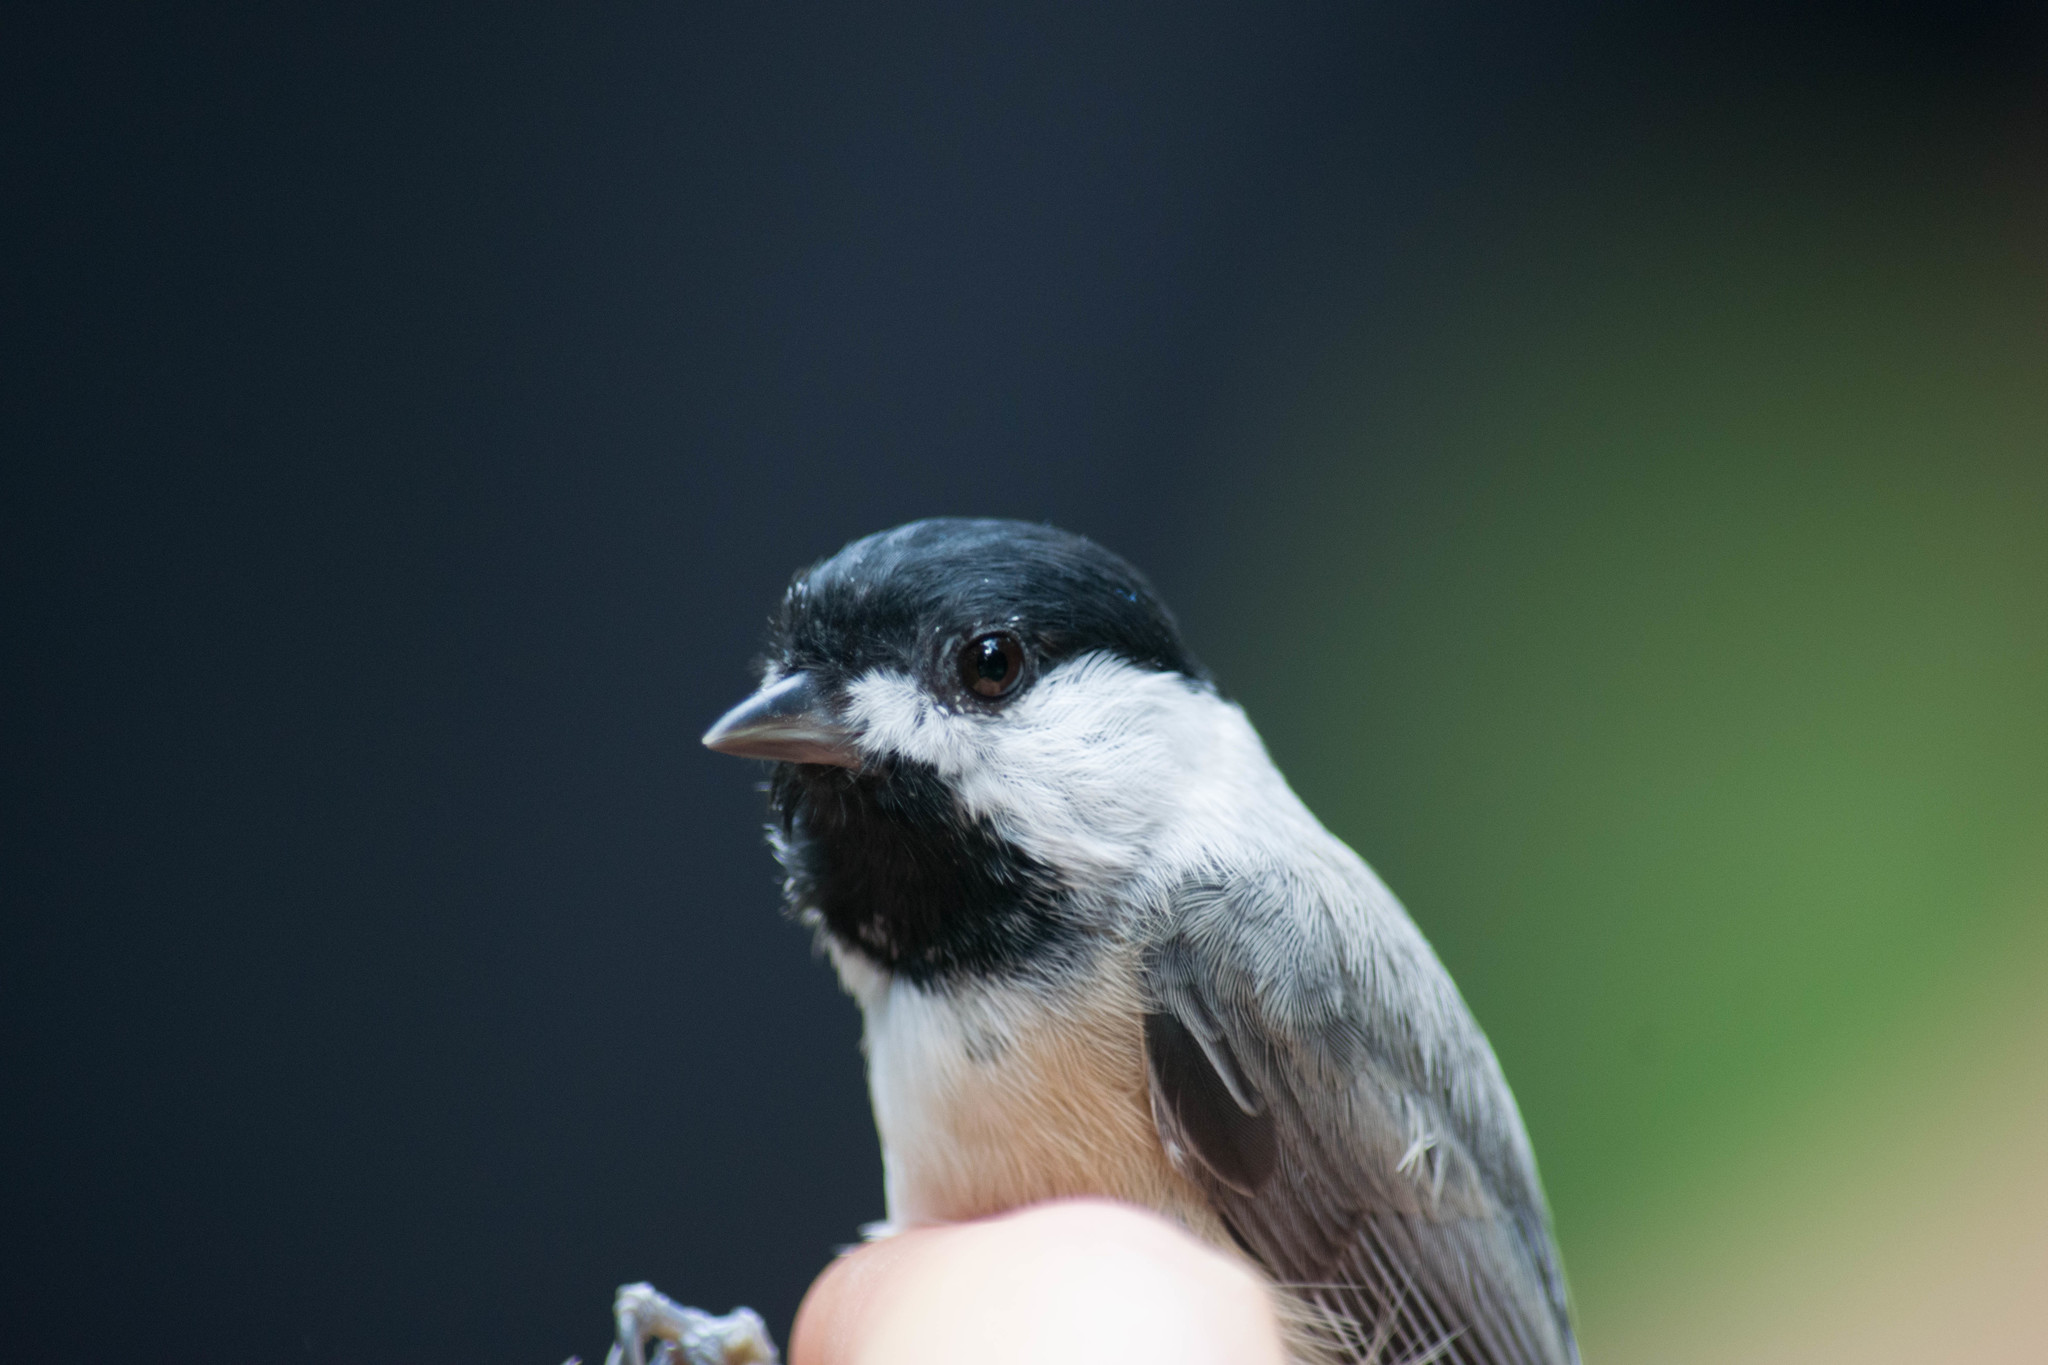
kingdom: Animalia
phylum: Chordata
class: Aves
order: Passeriformes
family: Paridae
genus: Poecile
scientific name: Poecile carolinensis
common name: Carolina chickadee
